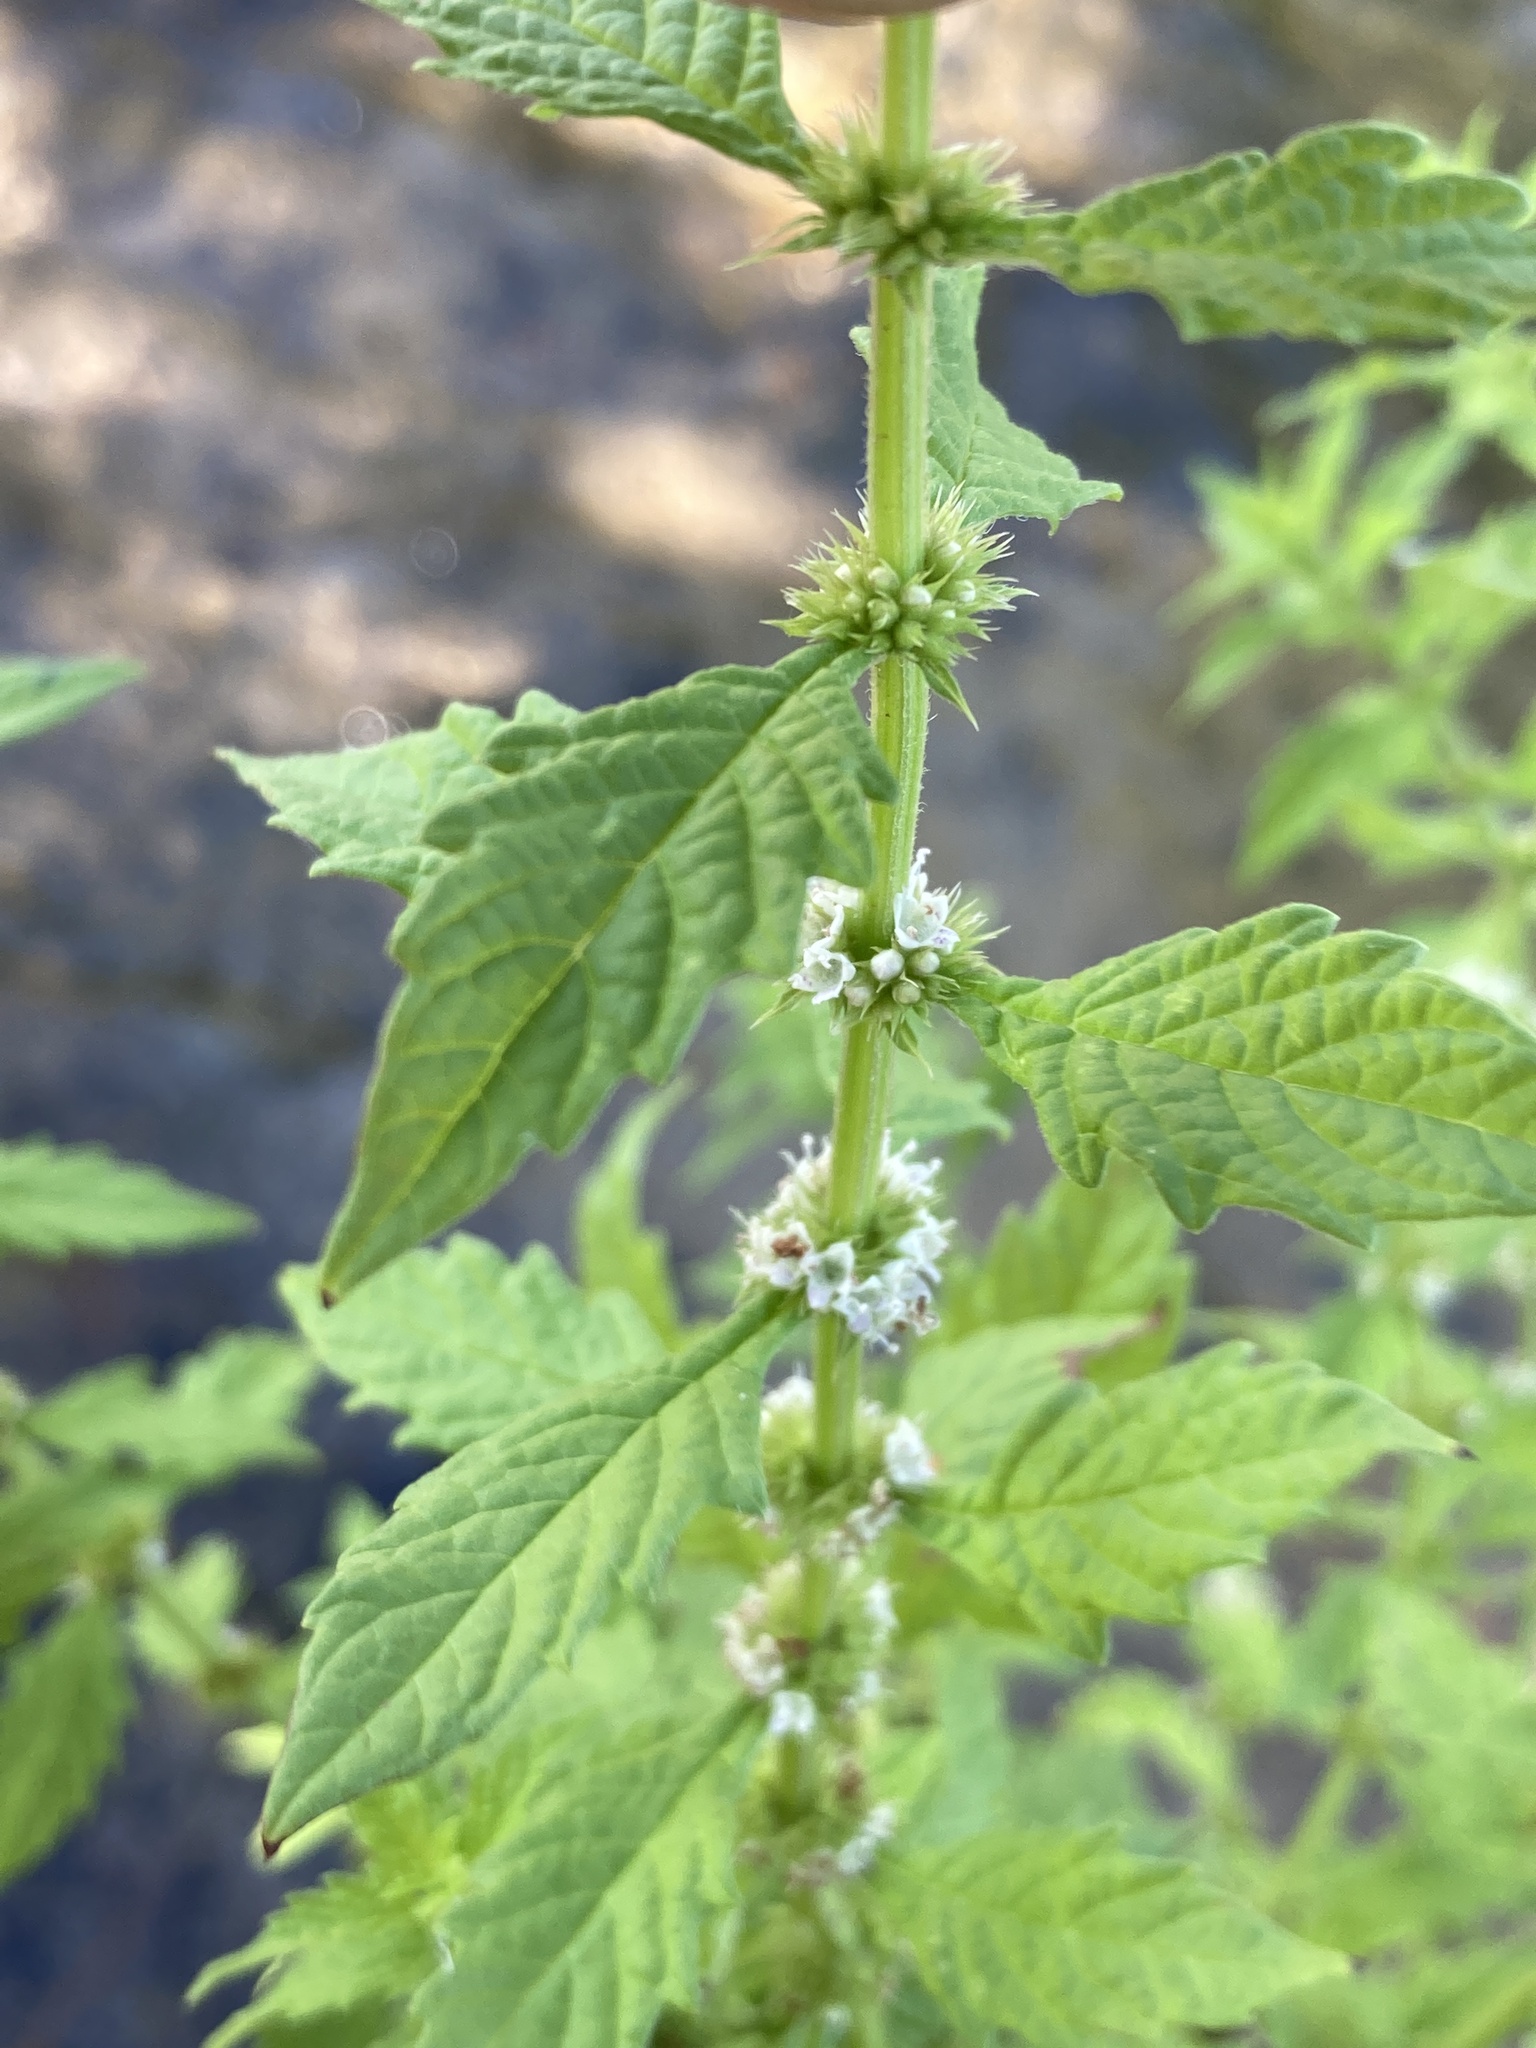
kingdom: Plantae
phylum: Tracheophyta
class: Magnoliopsida
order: Lamiales
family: Lamiaceae
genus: Lycopus
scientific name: Lycopus europaeus
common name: European bugleweed
